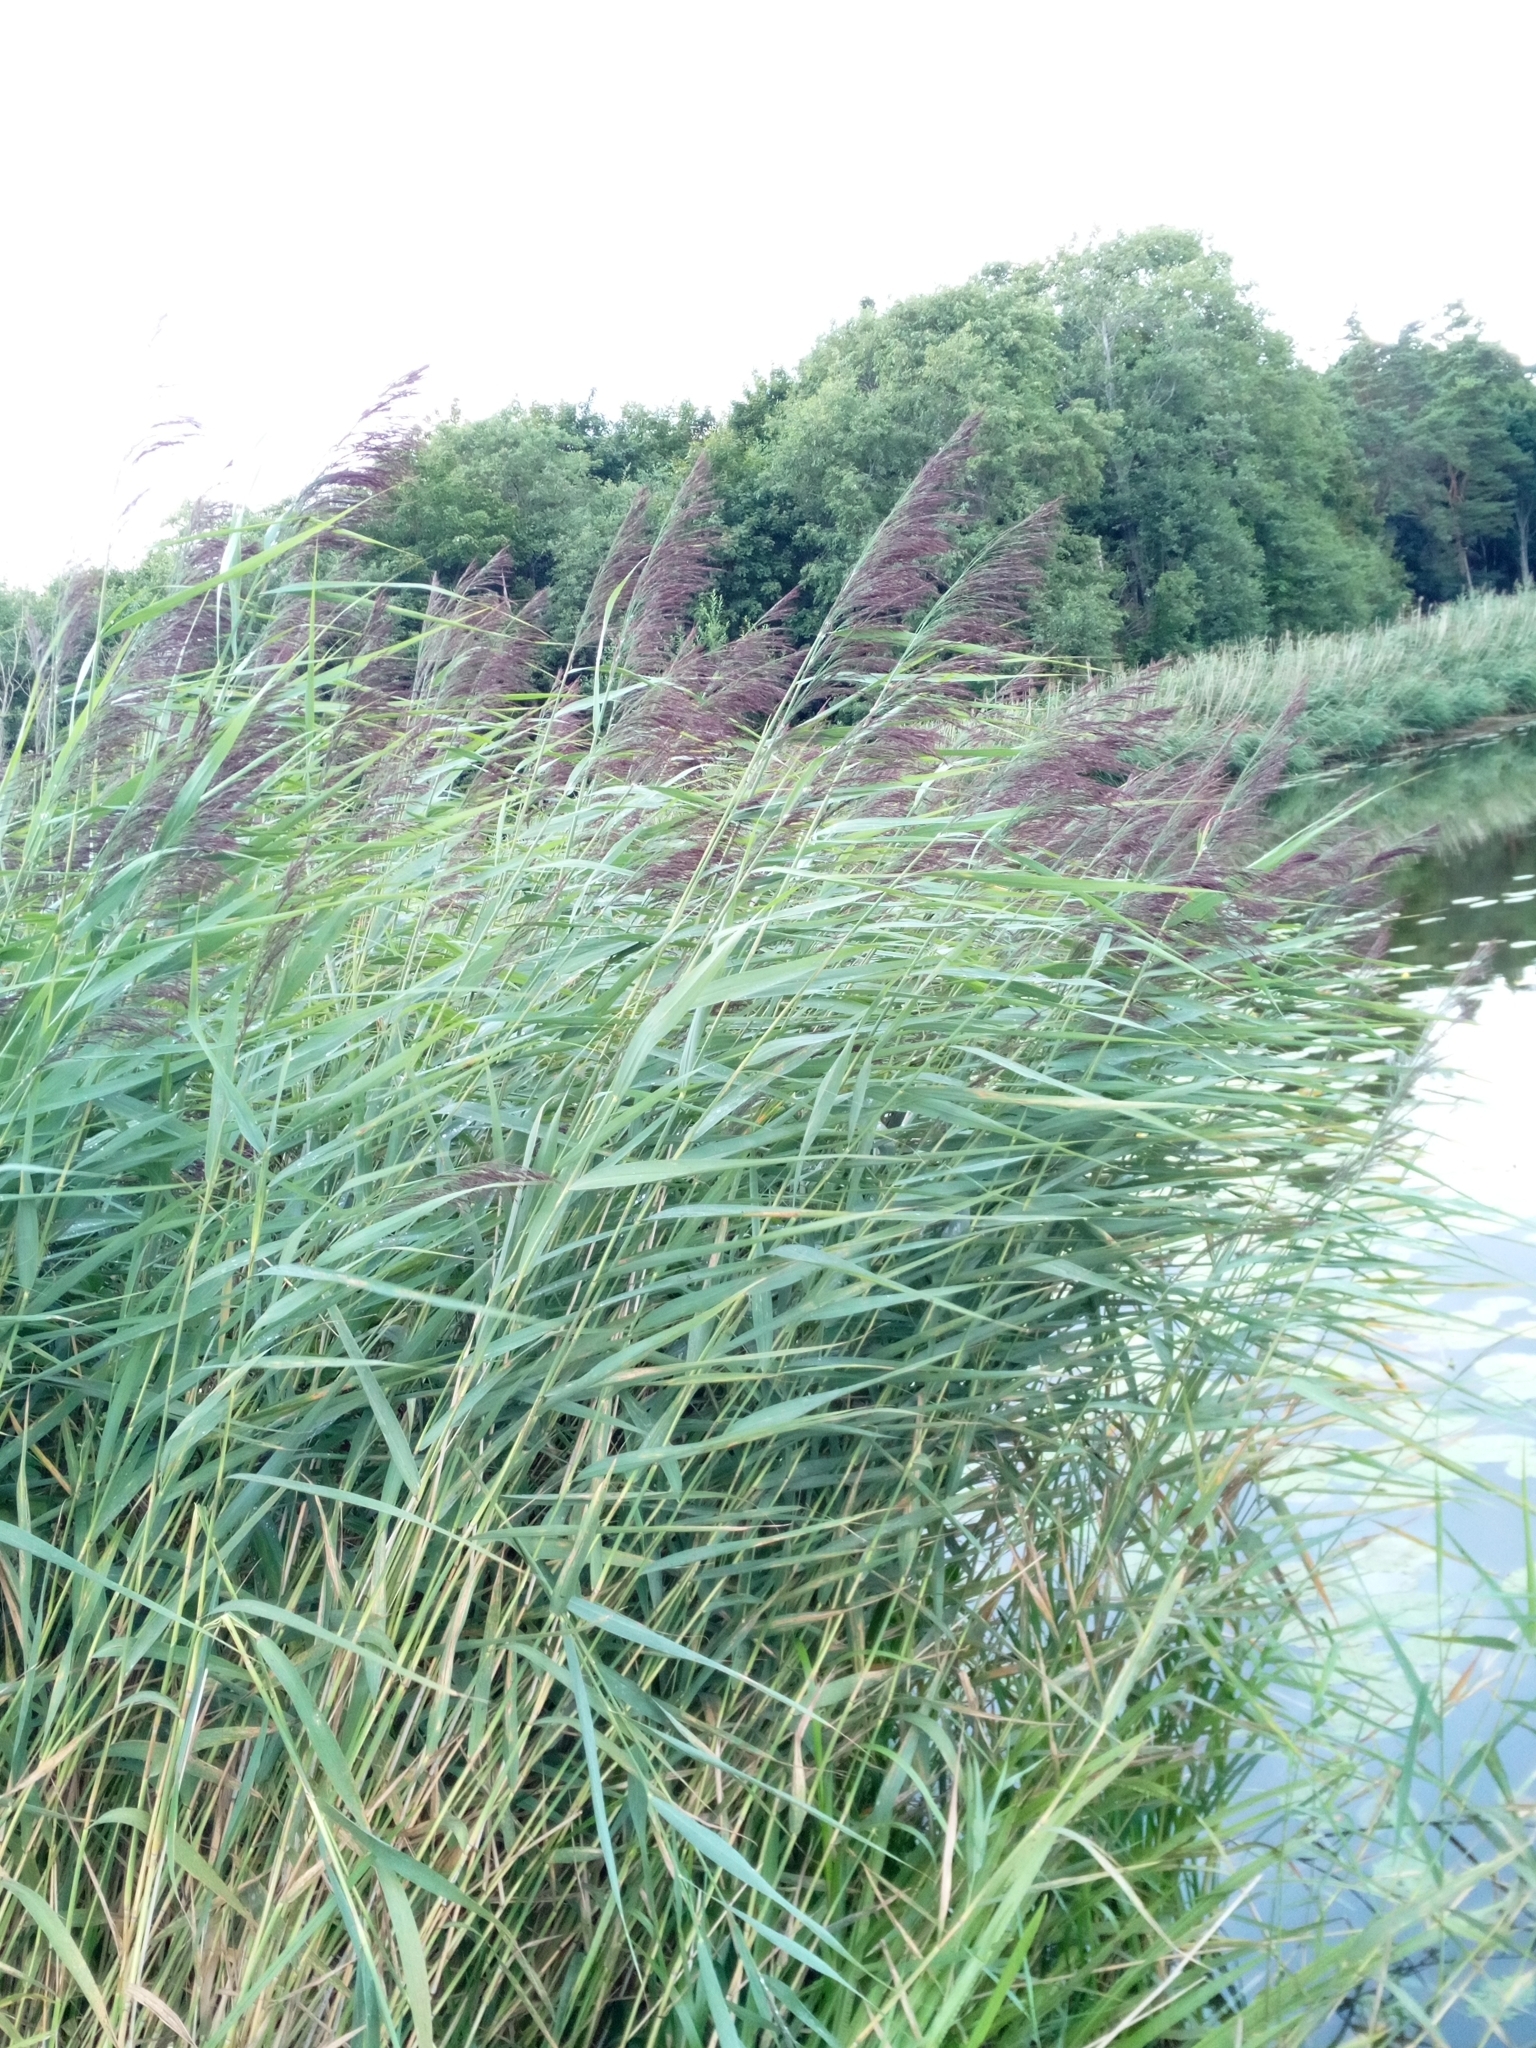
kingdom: Plantae
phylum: Tracheophyta
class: Liliopsida
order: Poales
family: Poaceae
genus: Phragmites
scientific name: Phragmites australis
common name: Common reed
